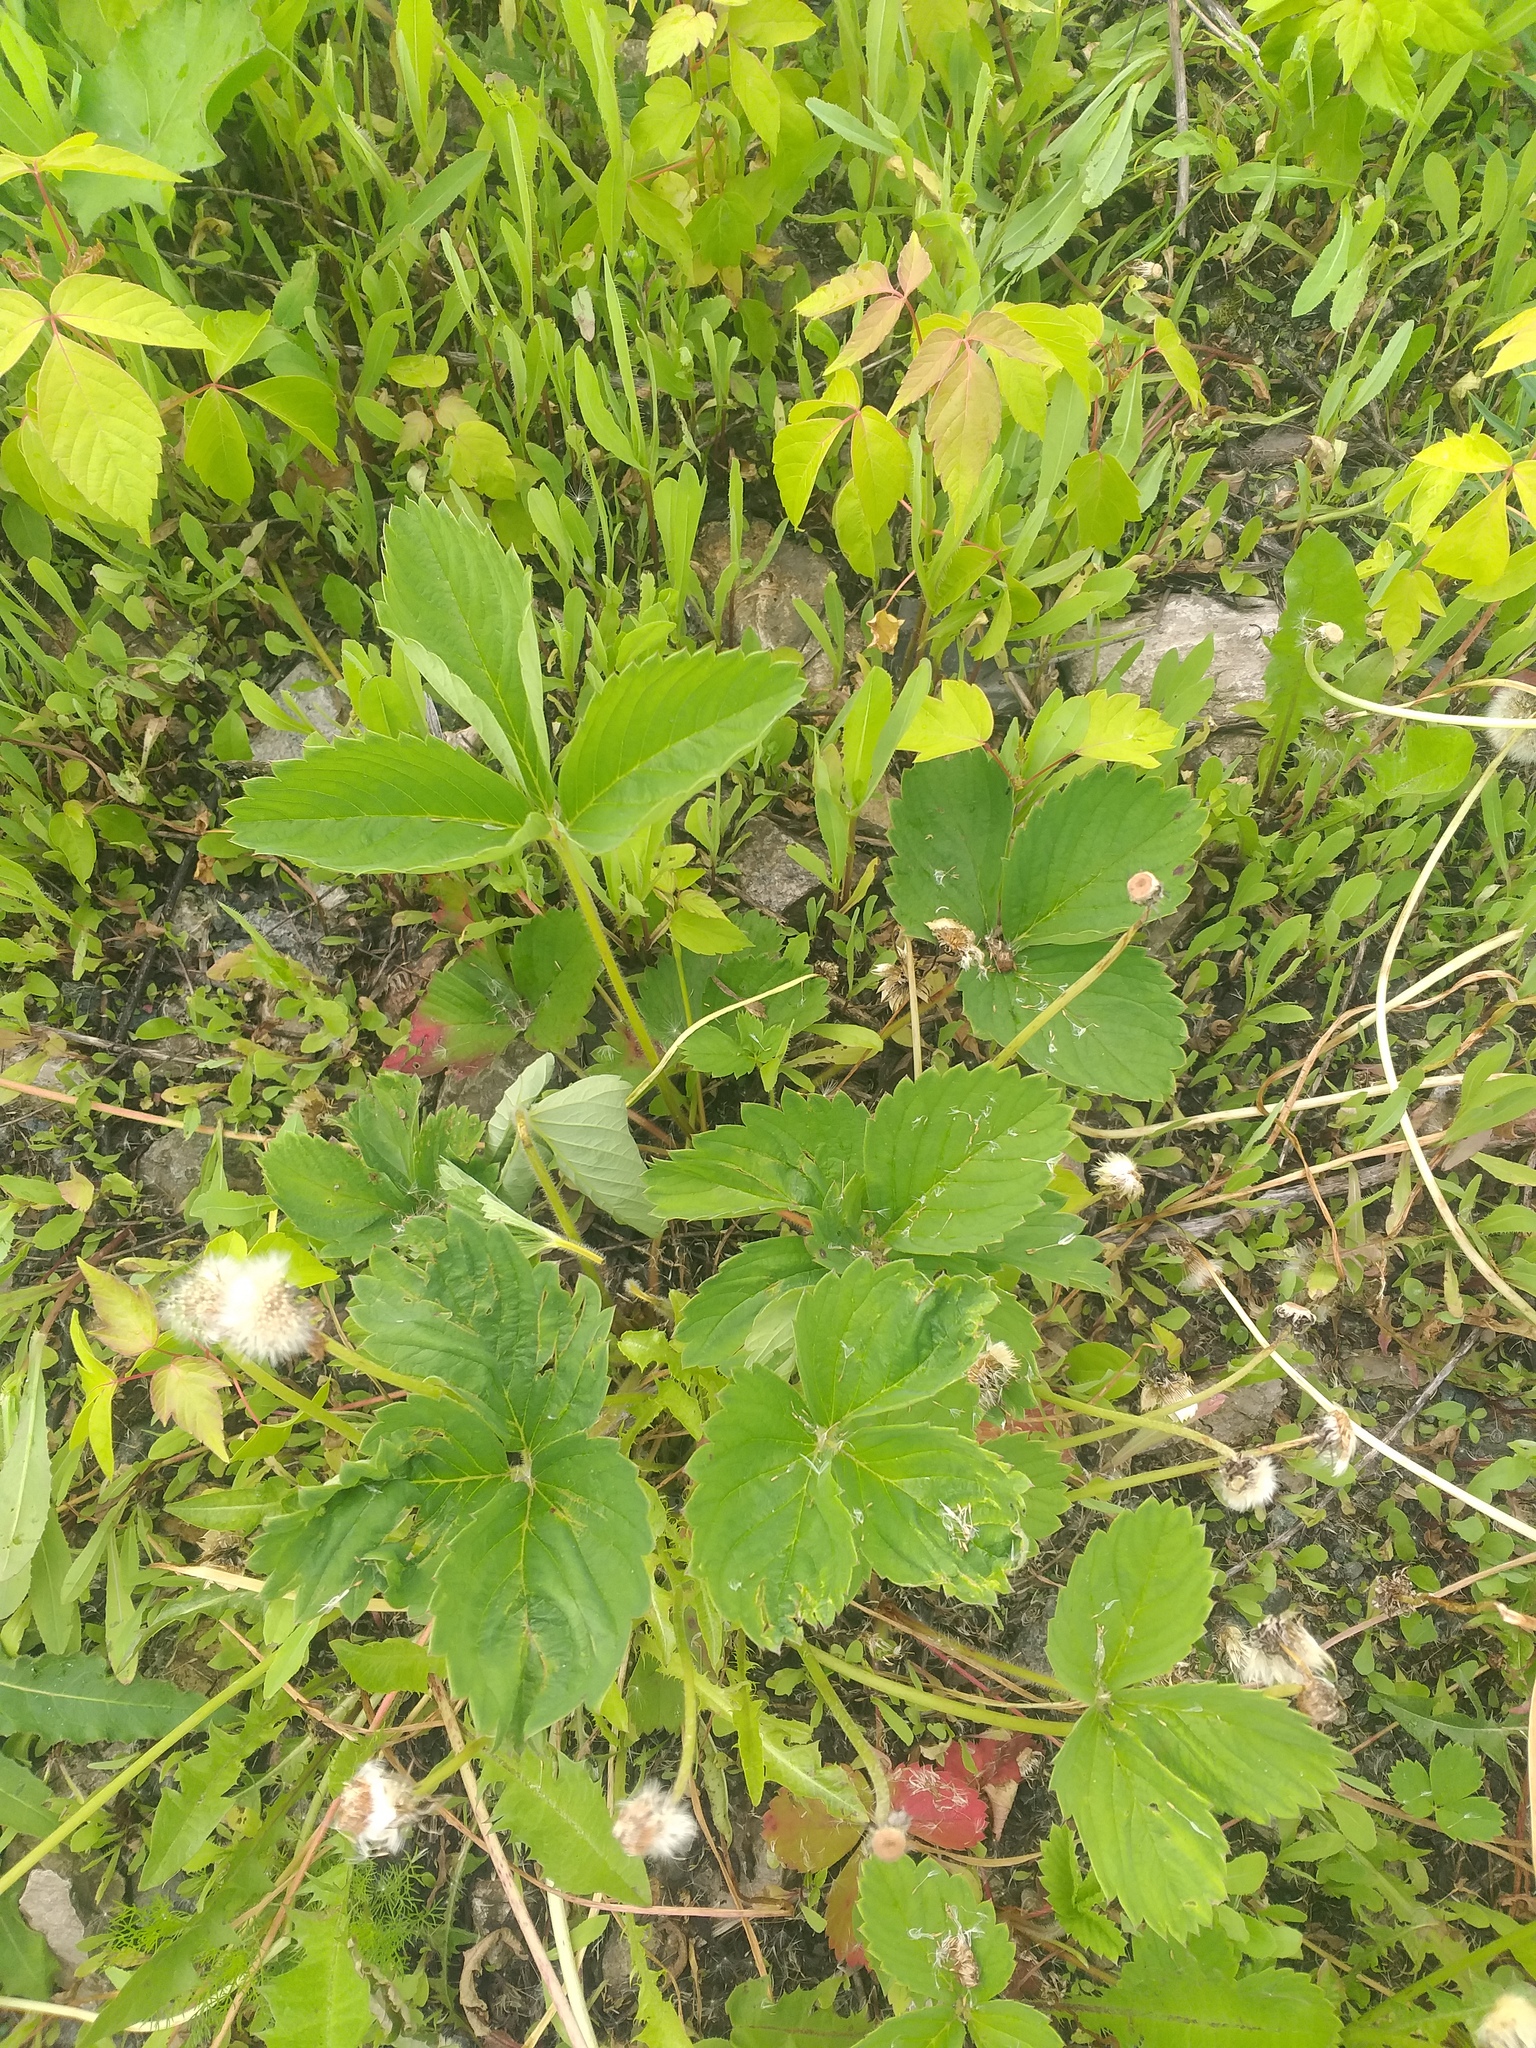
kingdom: Plantae
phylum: Tracheophyta
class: Magnoliopsida
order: Rosales
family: Rosaceae
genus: Fragaria
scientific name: Fragaria ananassa
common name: Garden strawberry
